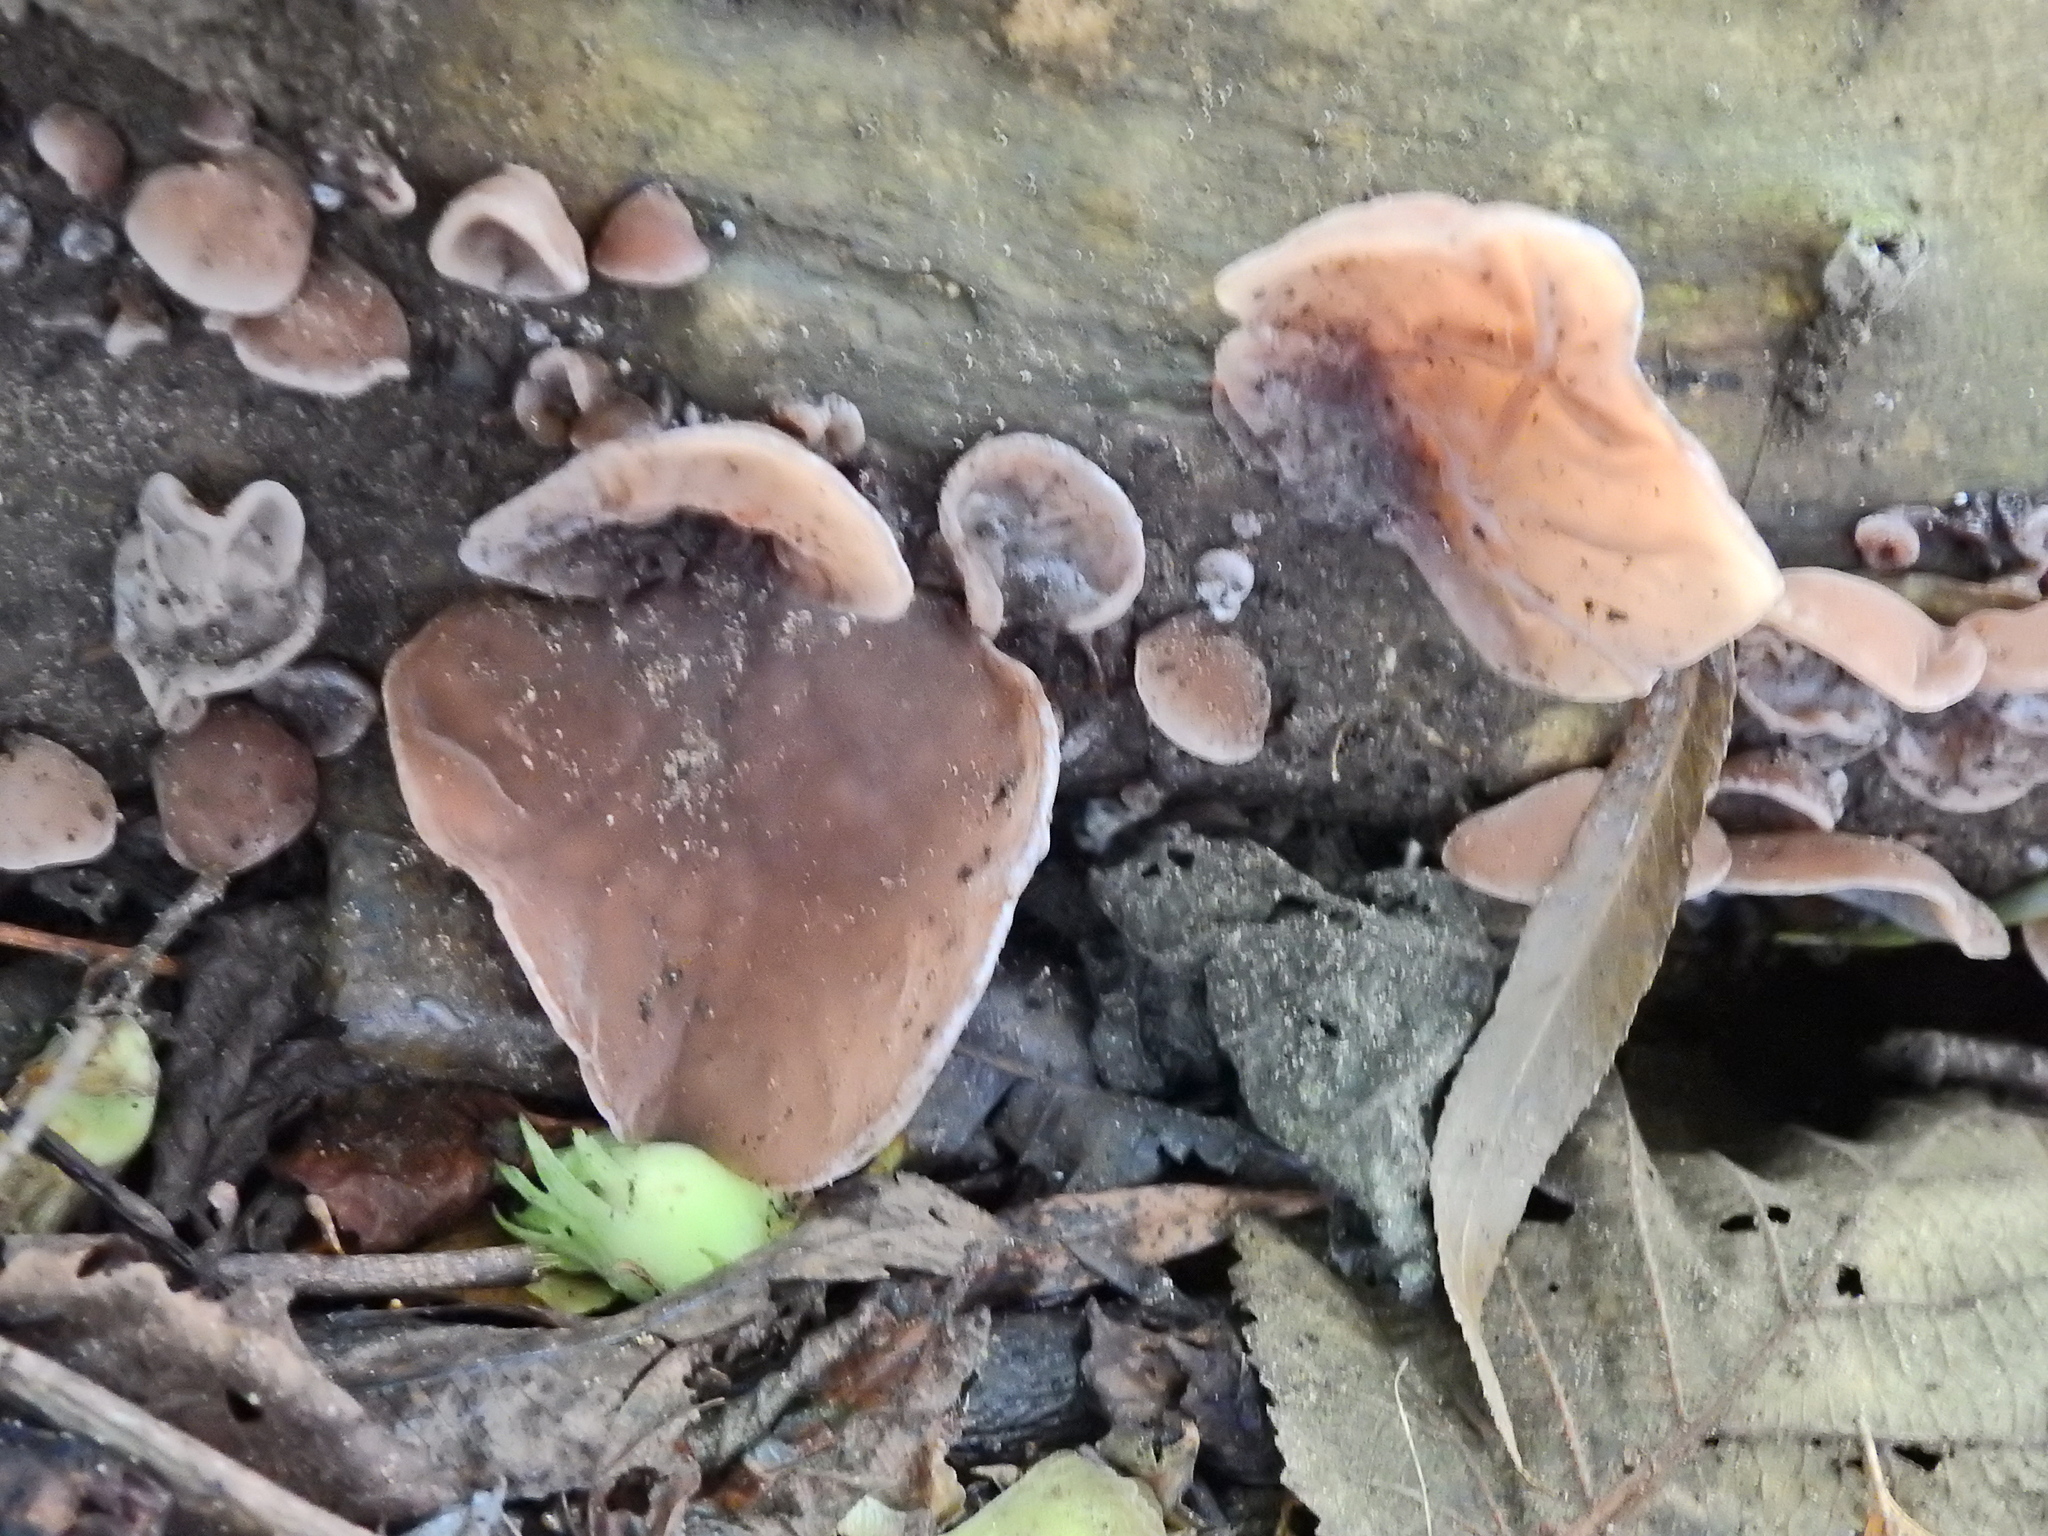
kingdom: Fungi
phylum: Basidiomycota
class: Agaricomycetes
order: Auriculariales
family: Auriculariaceae
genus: Auricularia
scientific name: Auricularia auricula-judae
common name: Jelly ear
